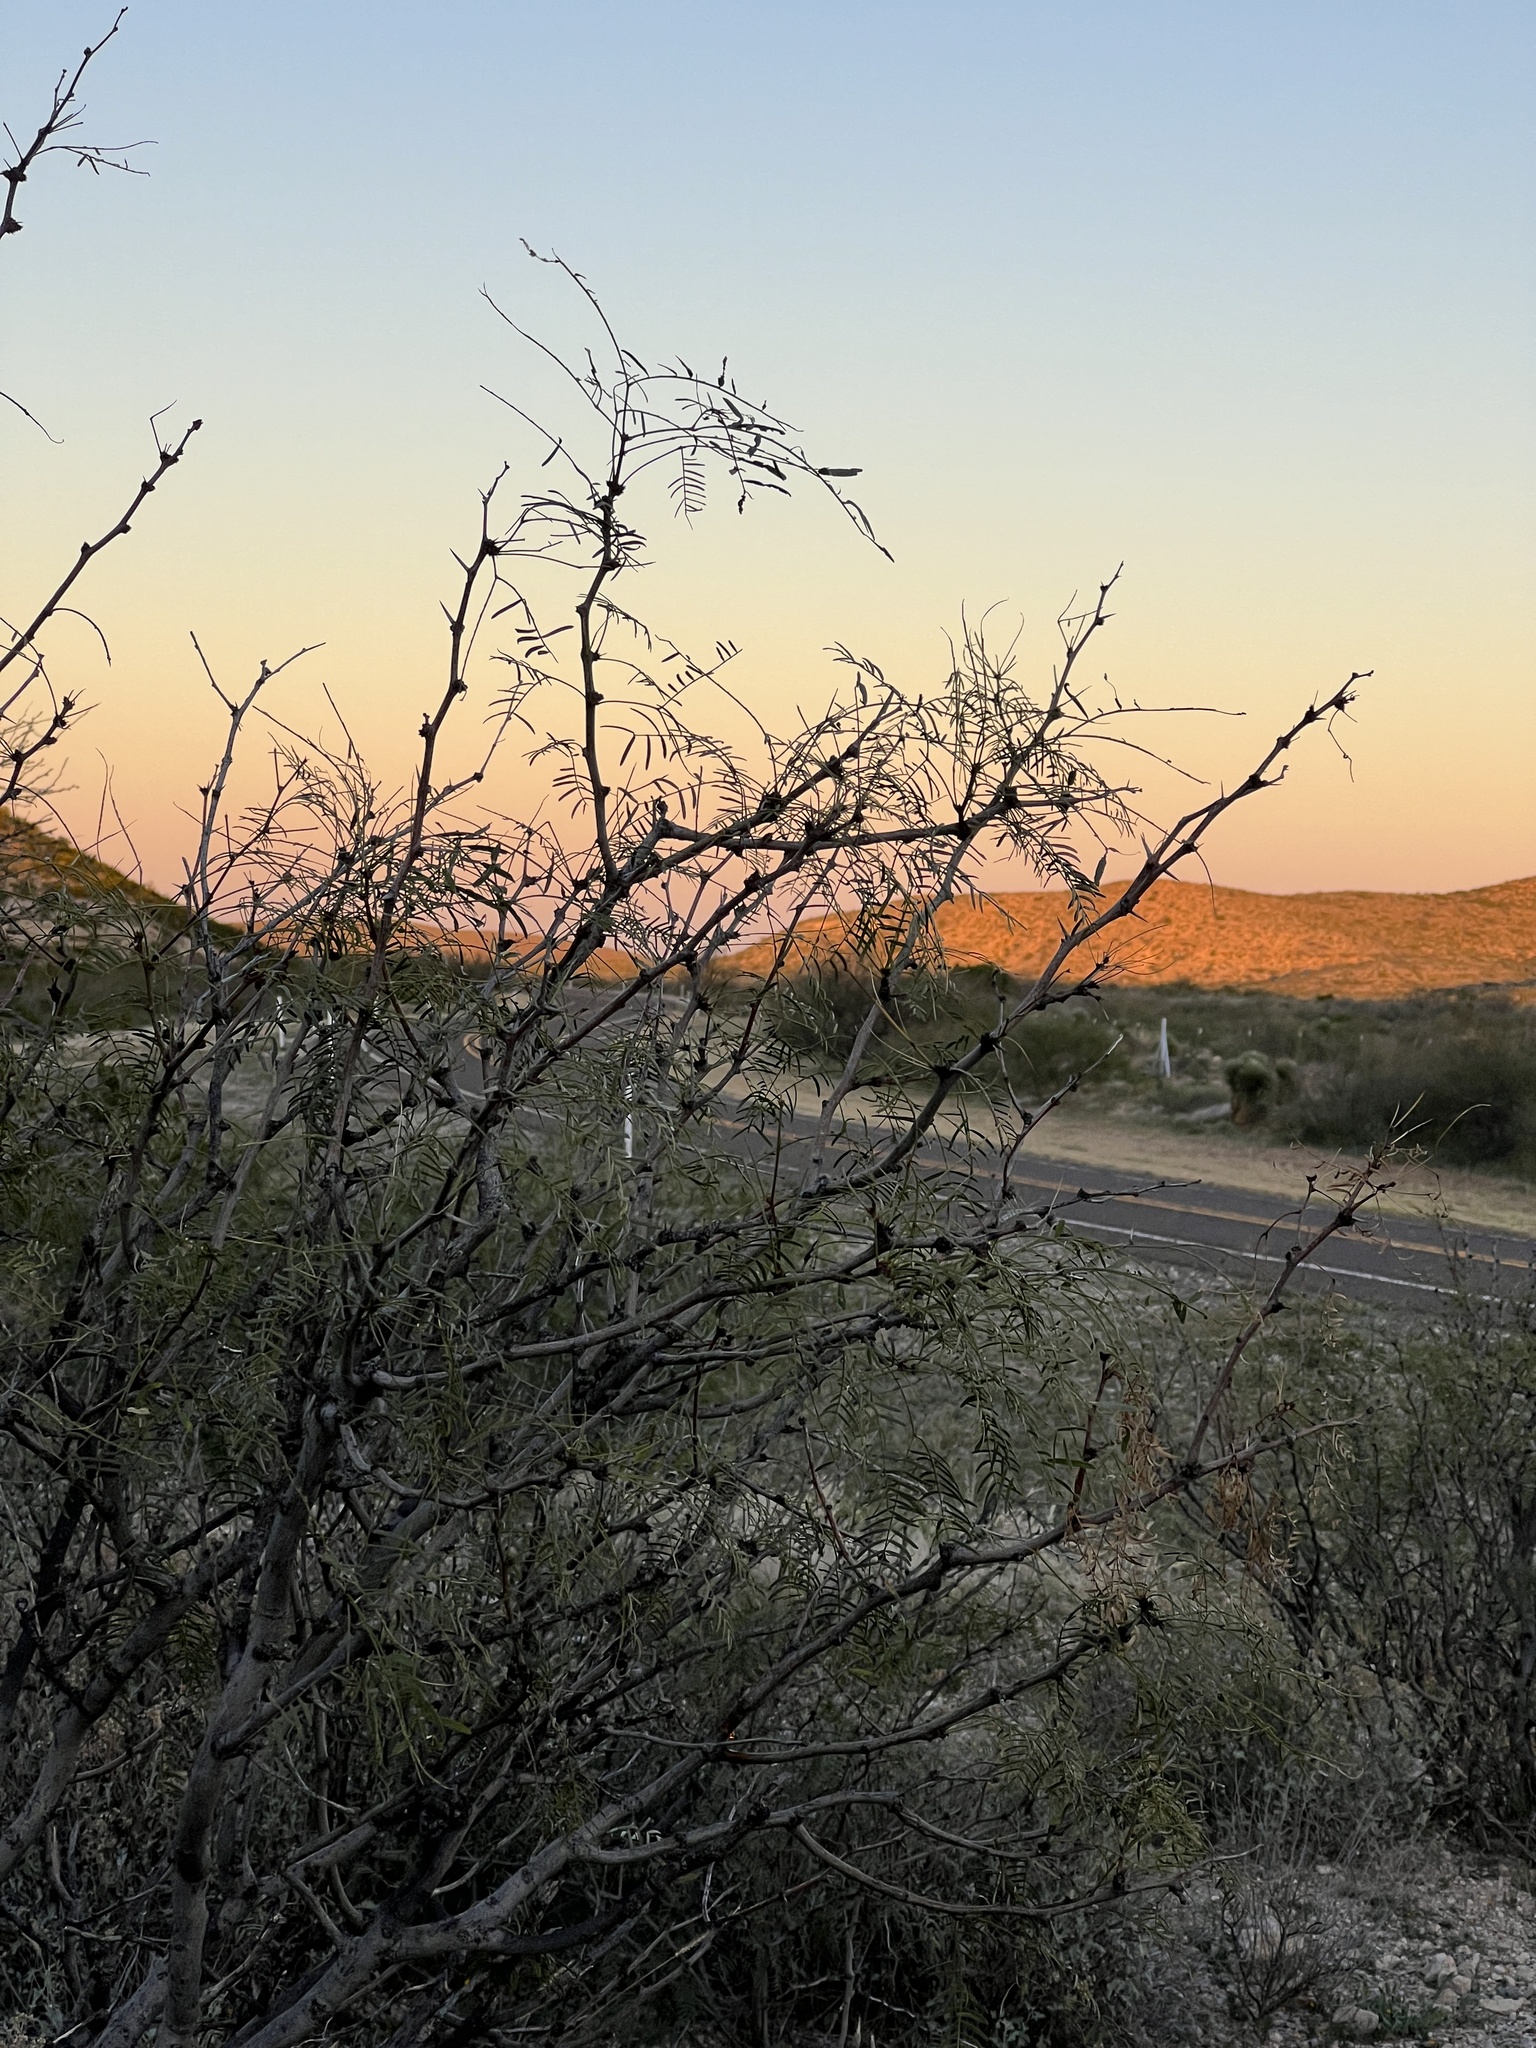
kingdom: Plantae
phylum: Tracheophyta
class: Magnoliopsida
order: Fabales
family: Fabaceae
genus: Prosopis
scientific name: Prosopis glandulosa
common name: Honey mesquite
